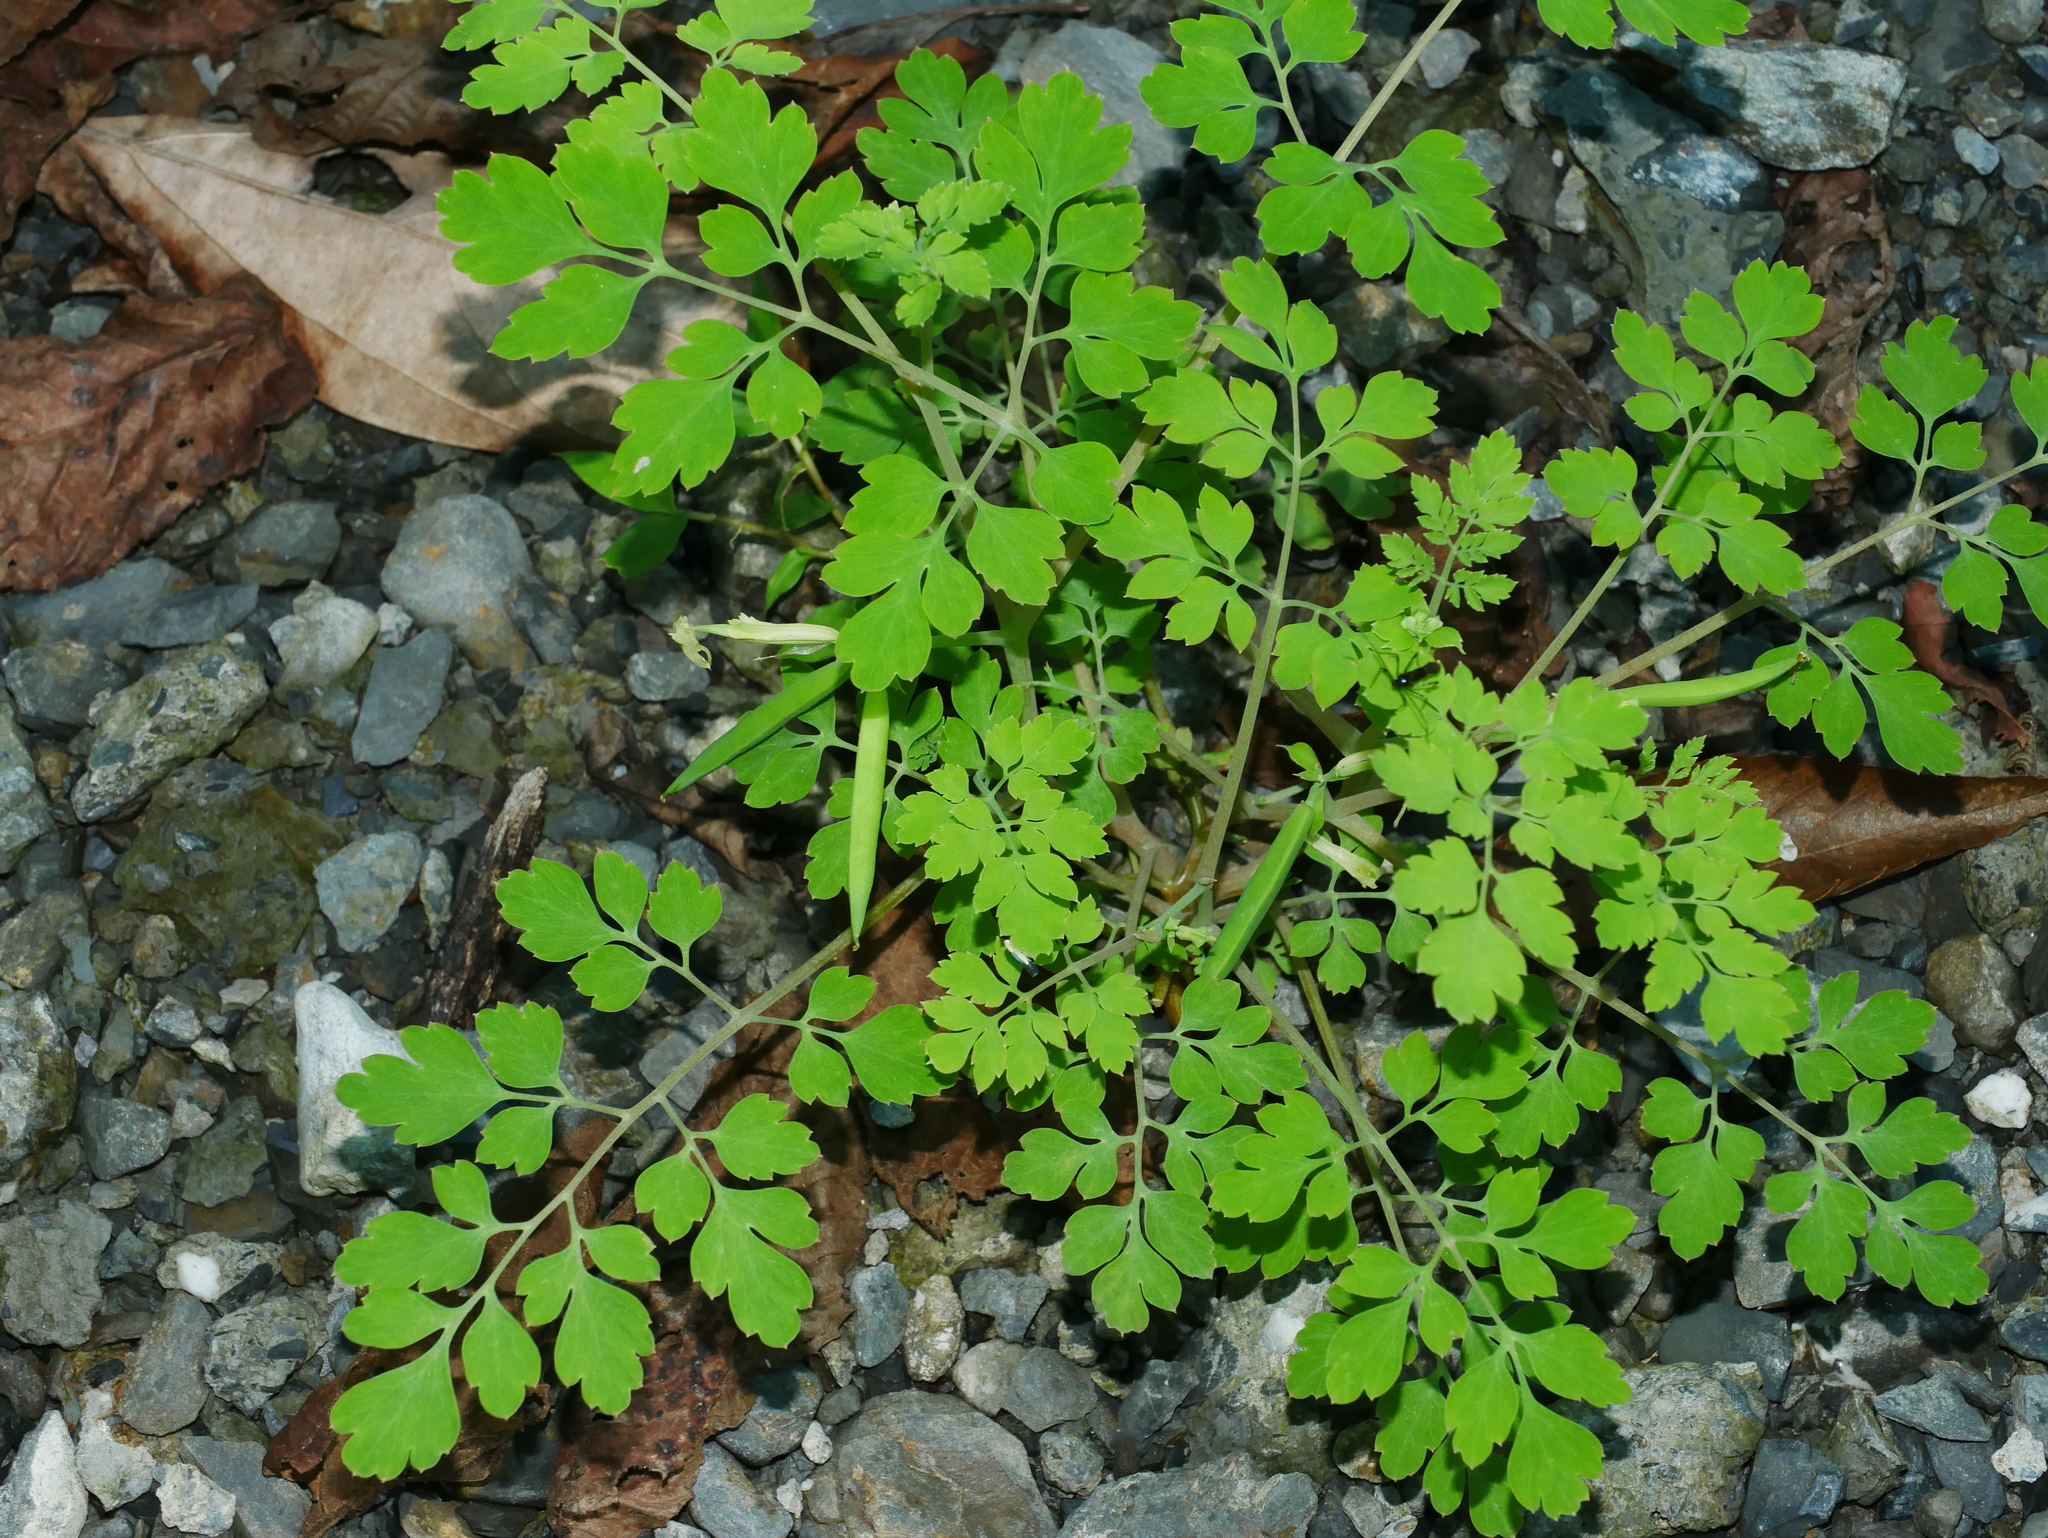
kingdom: Plantae
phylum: Tracheophyta
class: Magnoliopsida
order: Ranunculales
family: Papaveraceae
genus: Corydalis
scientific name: Corydalis balansae
